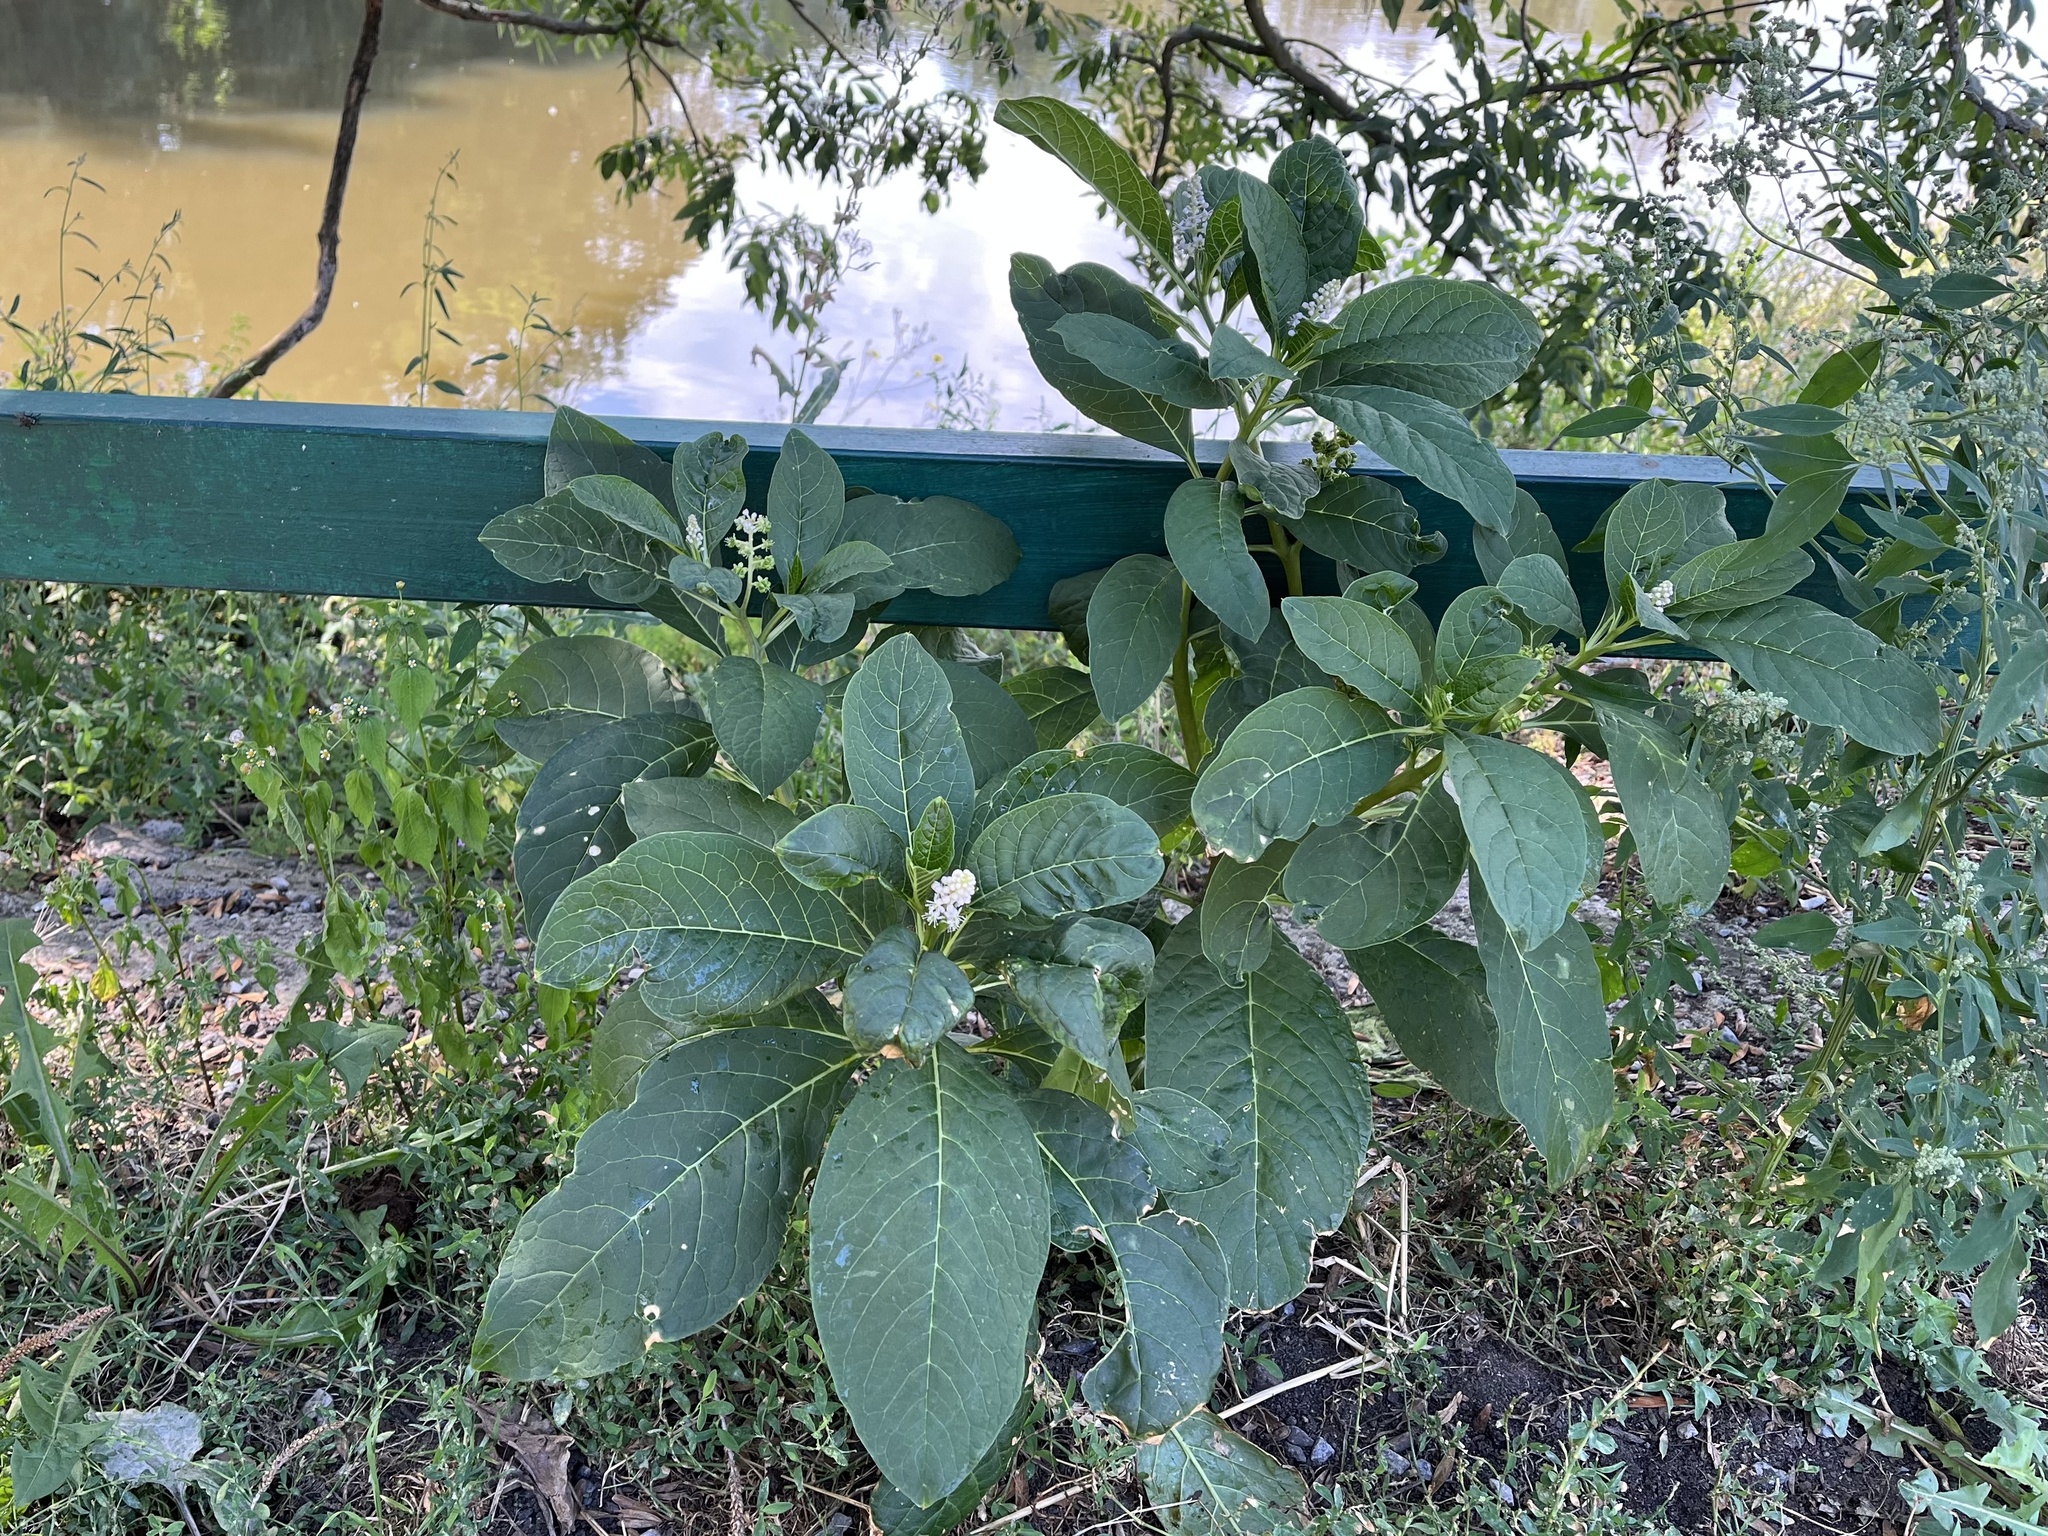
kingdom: Plantae
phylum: Tracheophyta
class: Magnoliopsida
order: Caryophyllales
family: Phytolaccaceae
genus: Phytolacca
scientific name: Phytolacca acinosa
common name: Indian pokeweed
